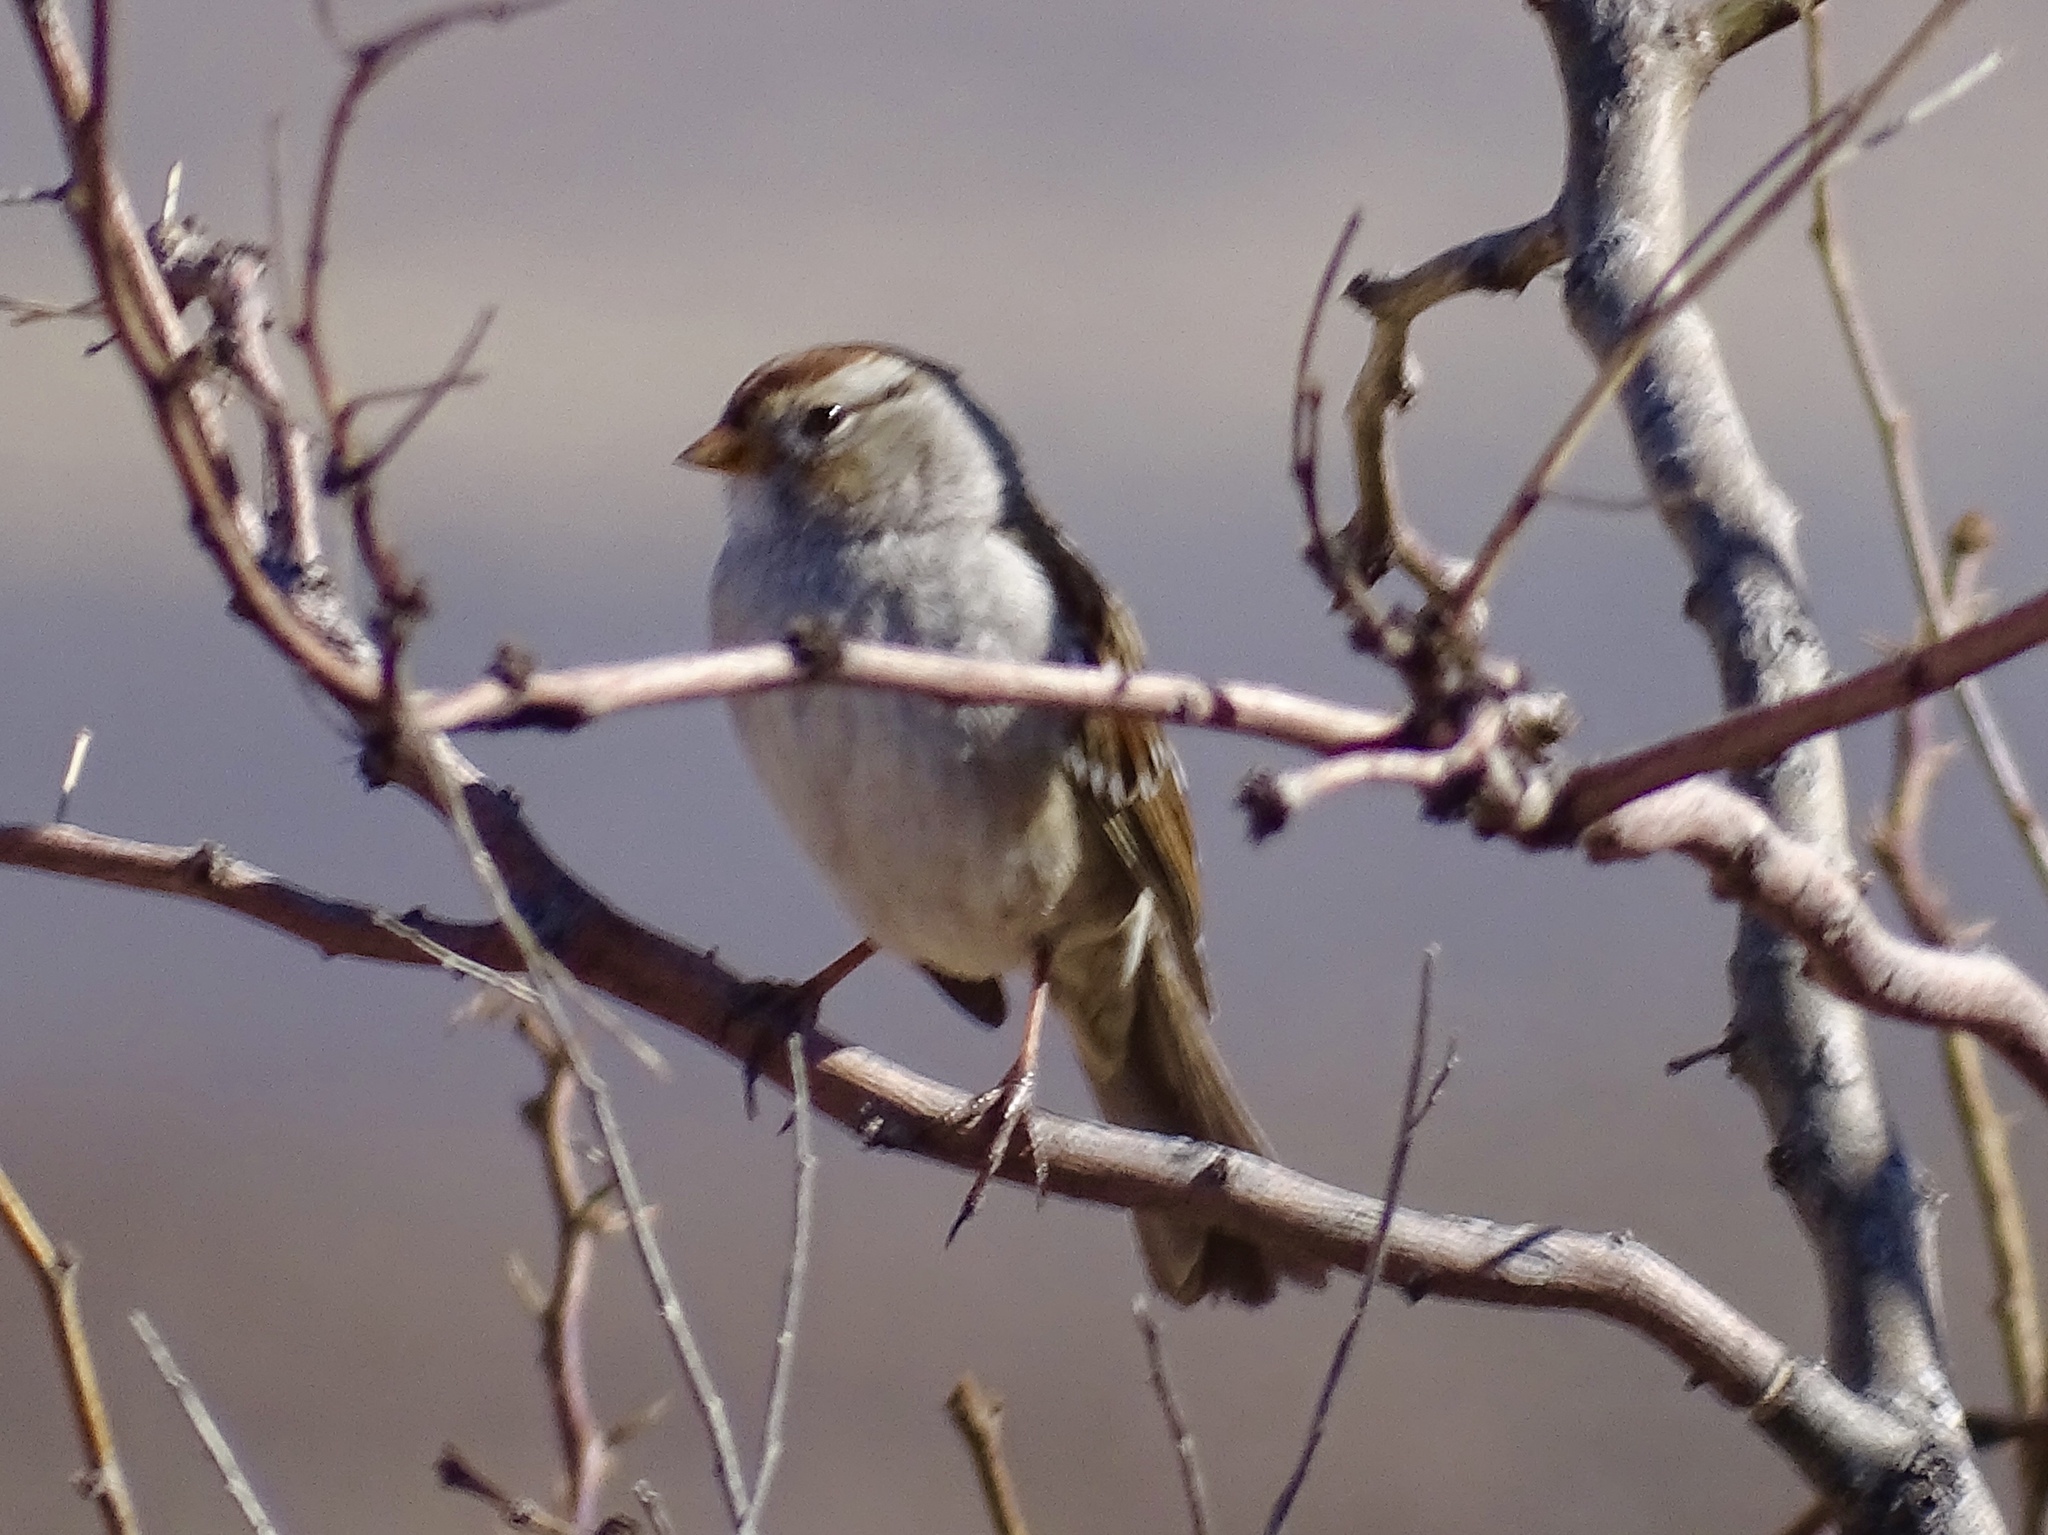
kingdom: Animalia
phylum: Chordata
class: Aves
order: Passeriformes
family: Passerellidae
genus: Zonotrichia
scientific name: Zonotrichia leucophrys
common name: White-crowned sparrow
